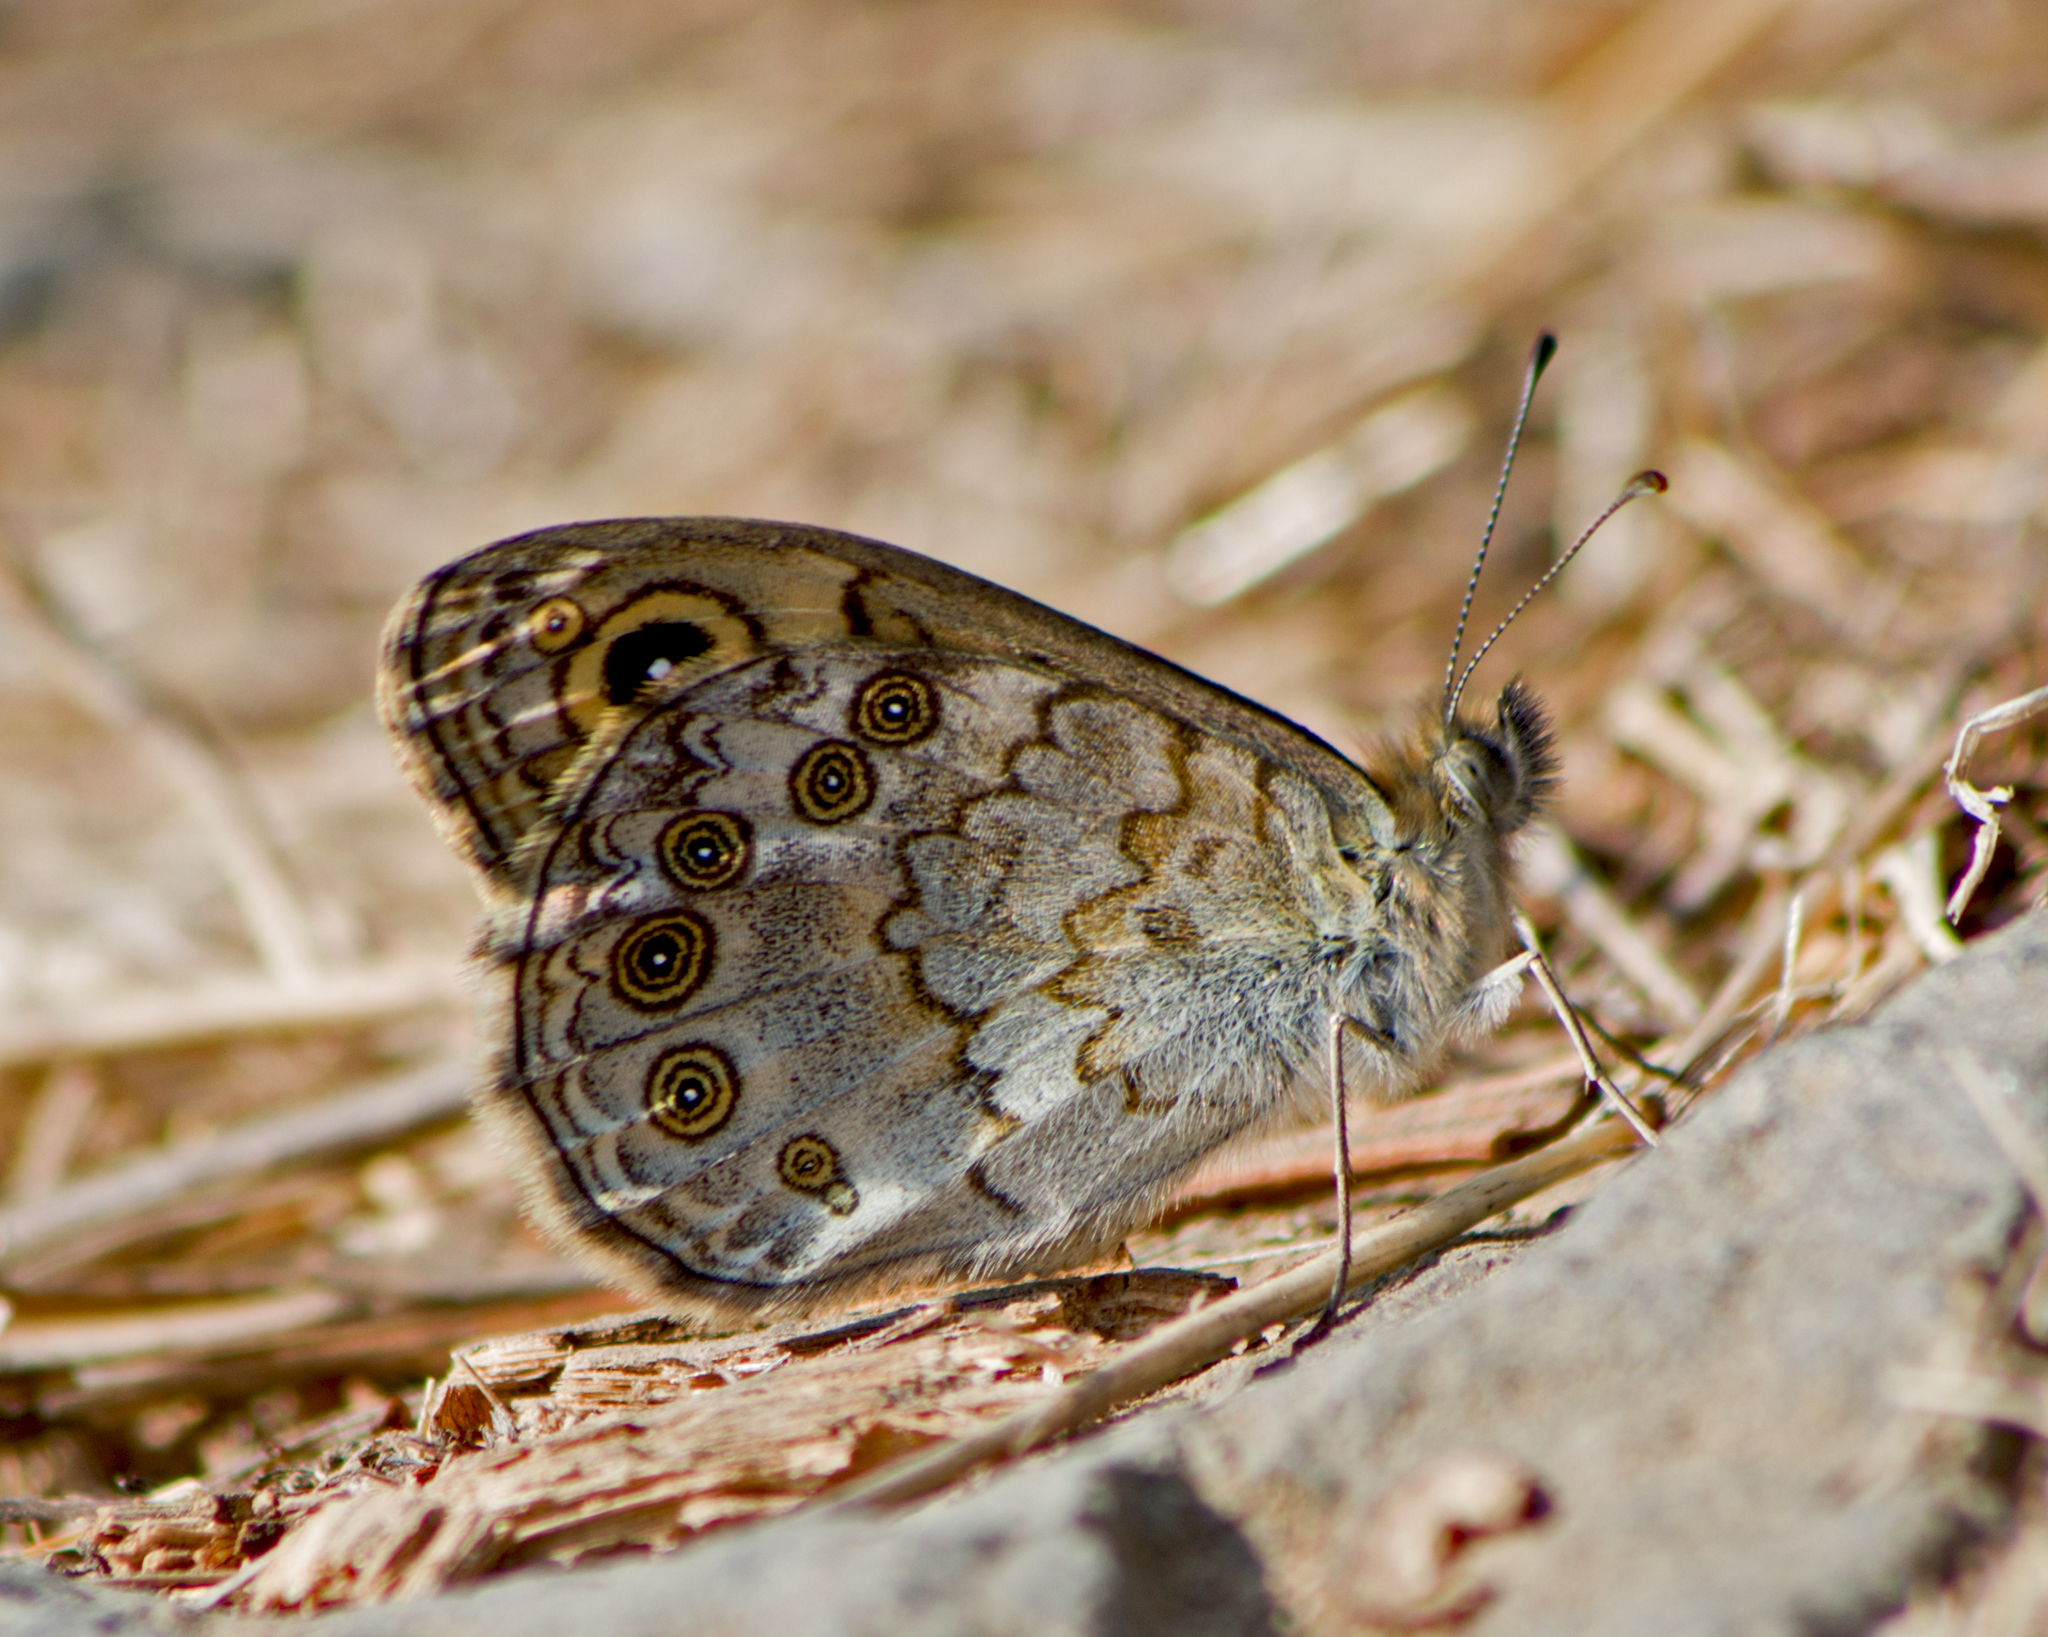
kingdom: Animalia
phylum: Arthropoda
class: Insecta
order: Lepidoptera
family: Nymphalidae
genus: Pararge
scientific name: Pararge Lasiommata megera
